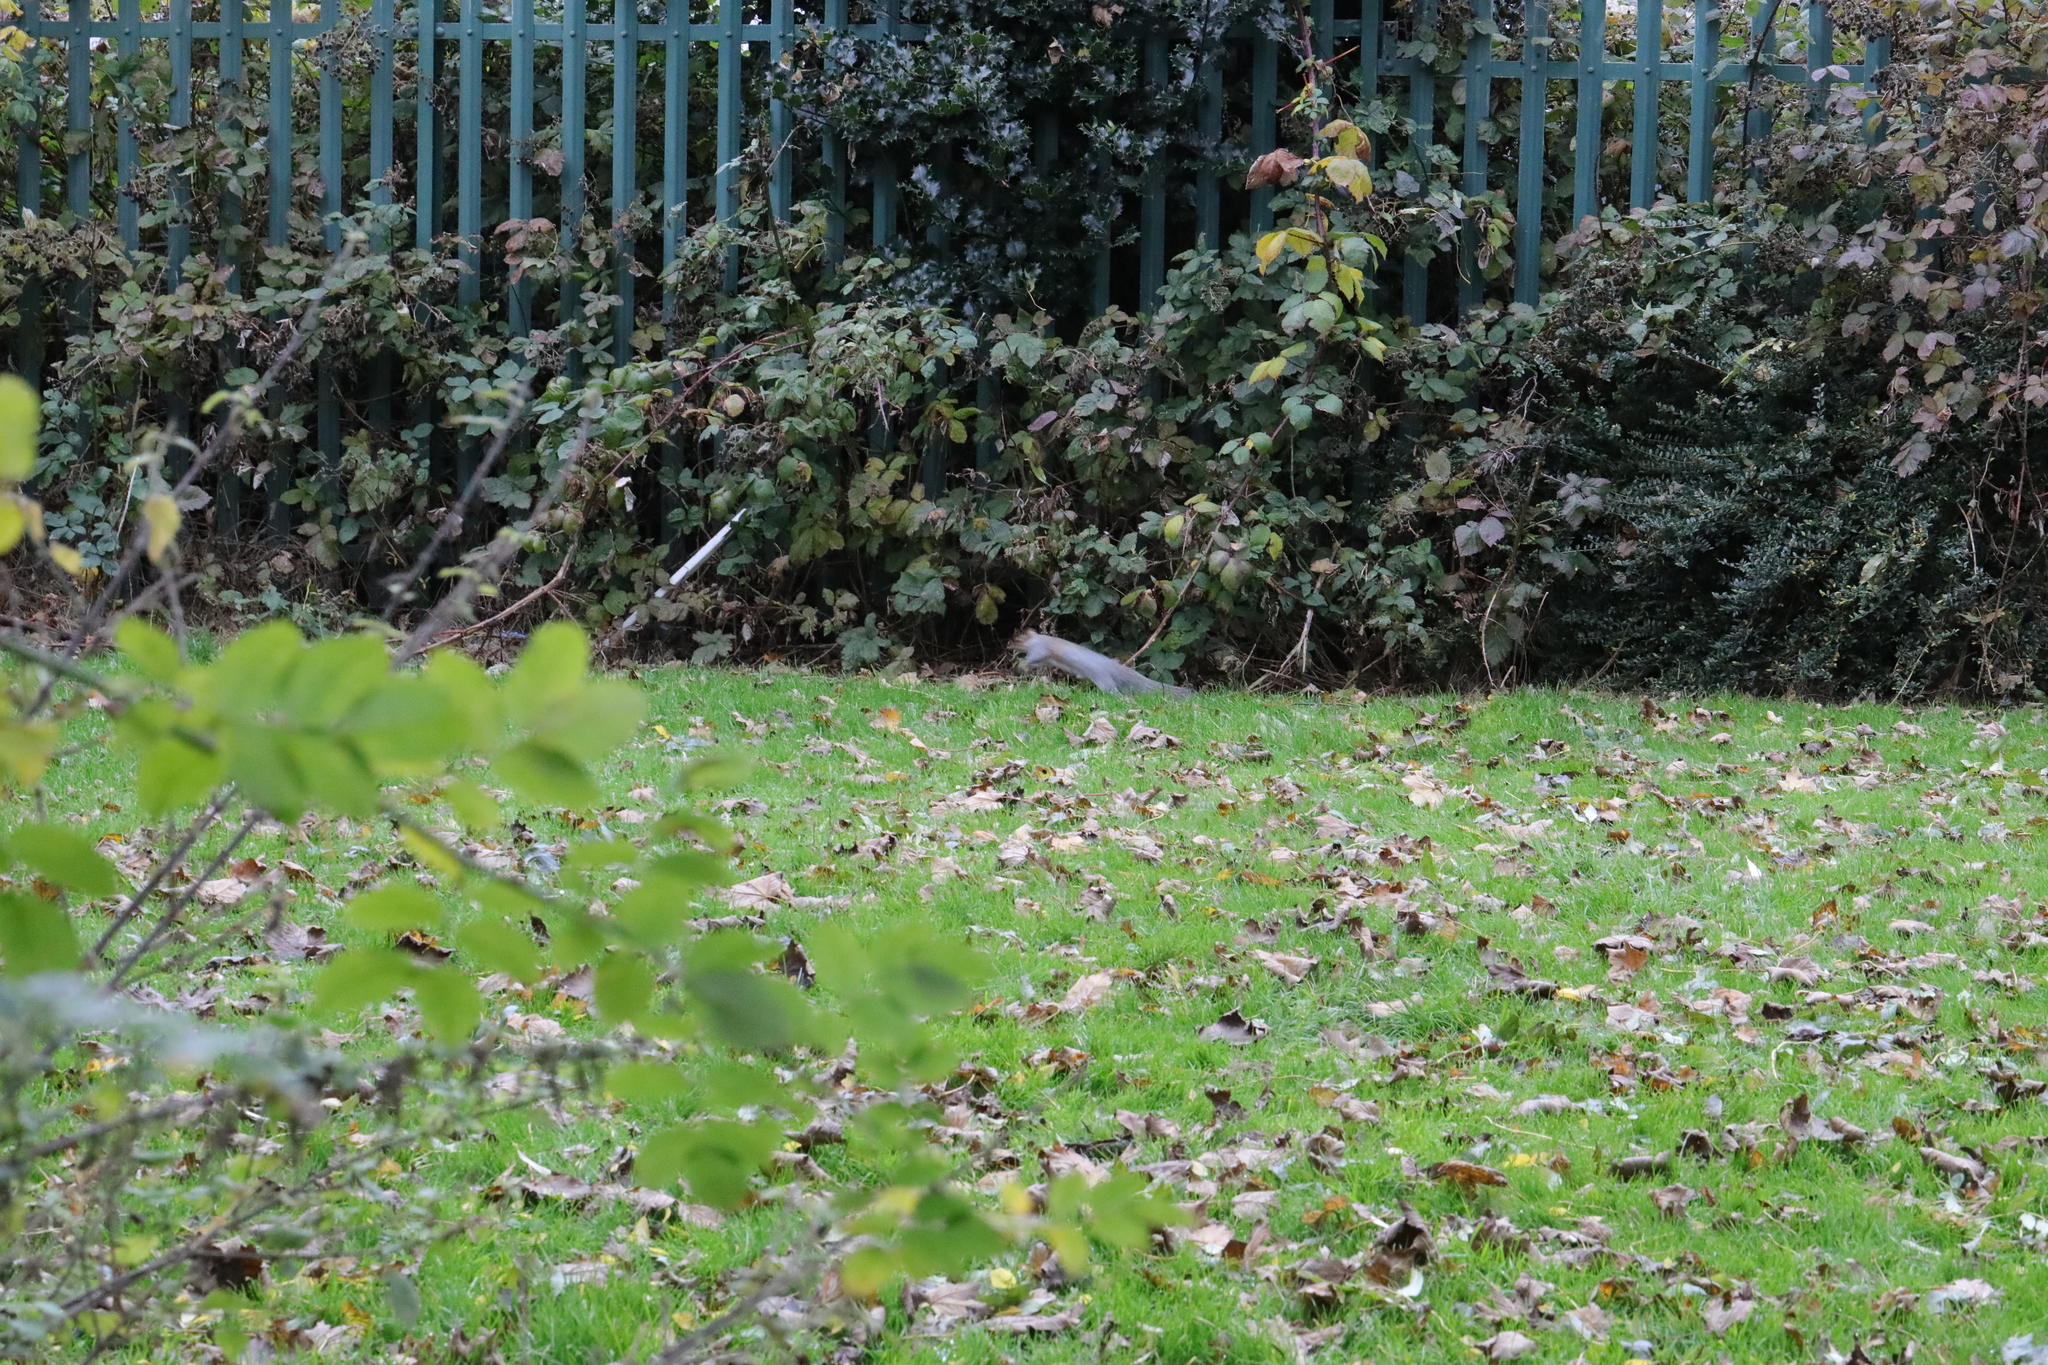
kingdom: Animalia
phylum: Chordata
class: Mammalia
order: Rodentia
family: Sciuridae
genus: Sciurus
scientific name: Sciurus carolinensis
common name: Eastern gray squirrel
